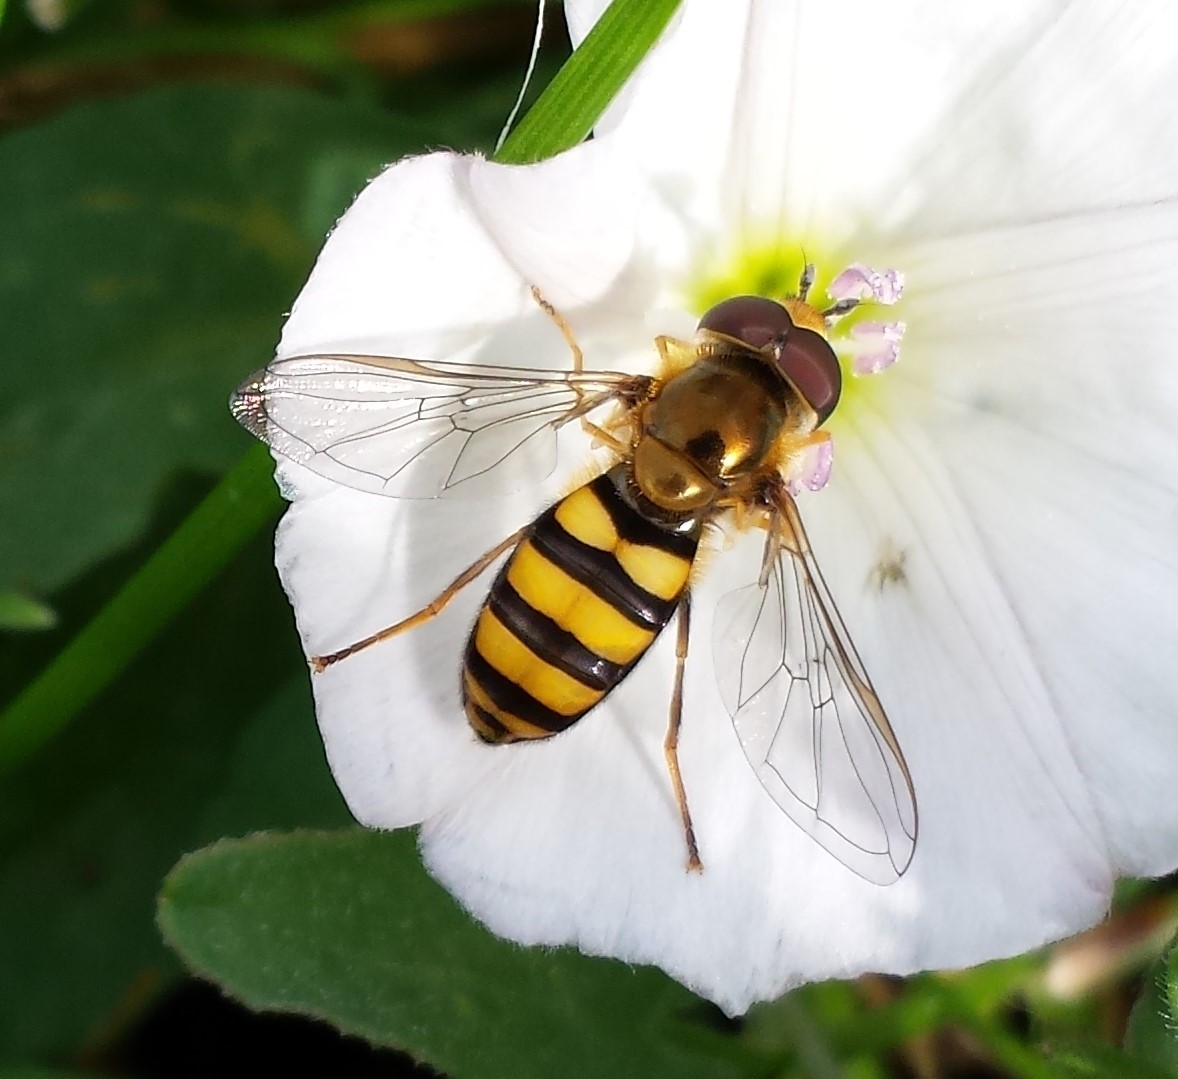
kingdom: Animalia
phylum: Arthropoda
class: Insecta
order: Diptera
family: Syrphidae
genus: Eupeodes
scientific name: Eupeodes
